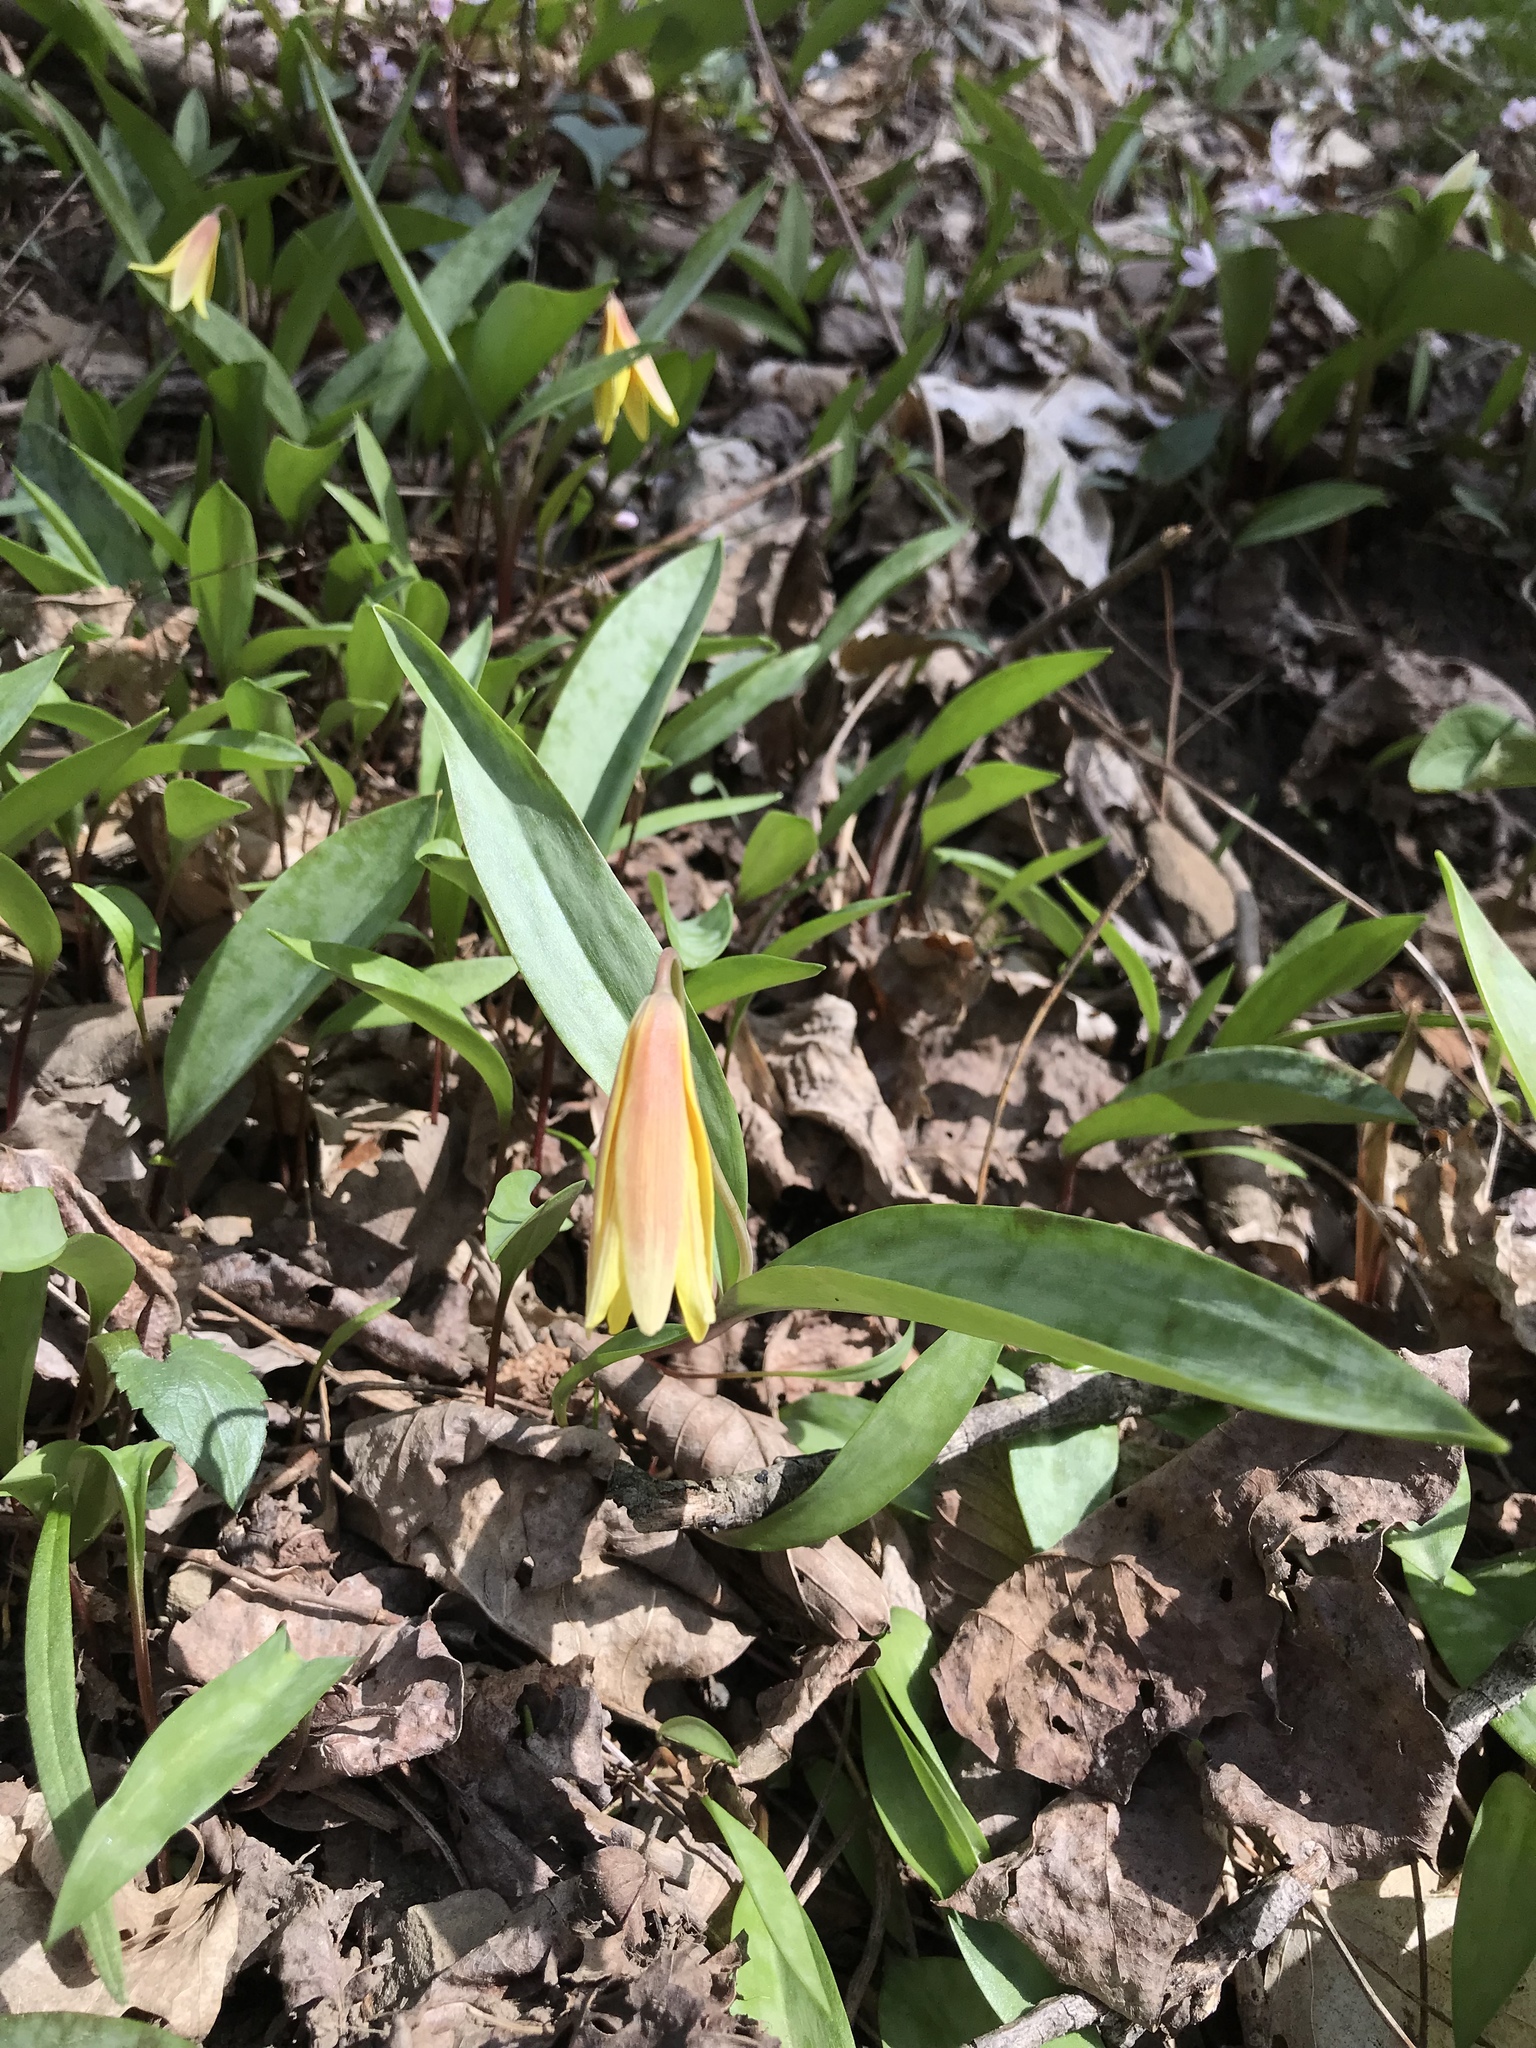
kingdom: Plantae
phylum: Tracheophyta
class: Liliopsida
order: Liliales
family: Liliaceae
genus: Erythronium
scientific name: Erythronium americanum
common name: Yellow adder's-tongue
